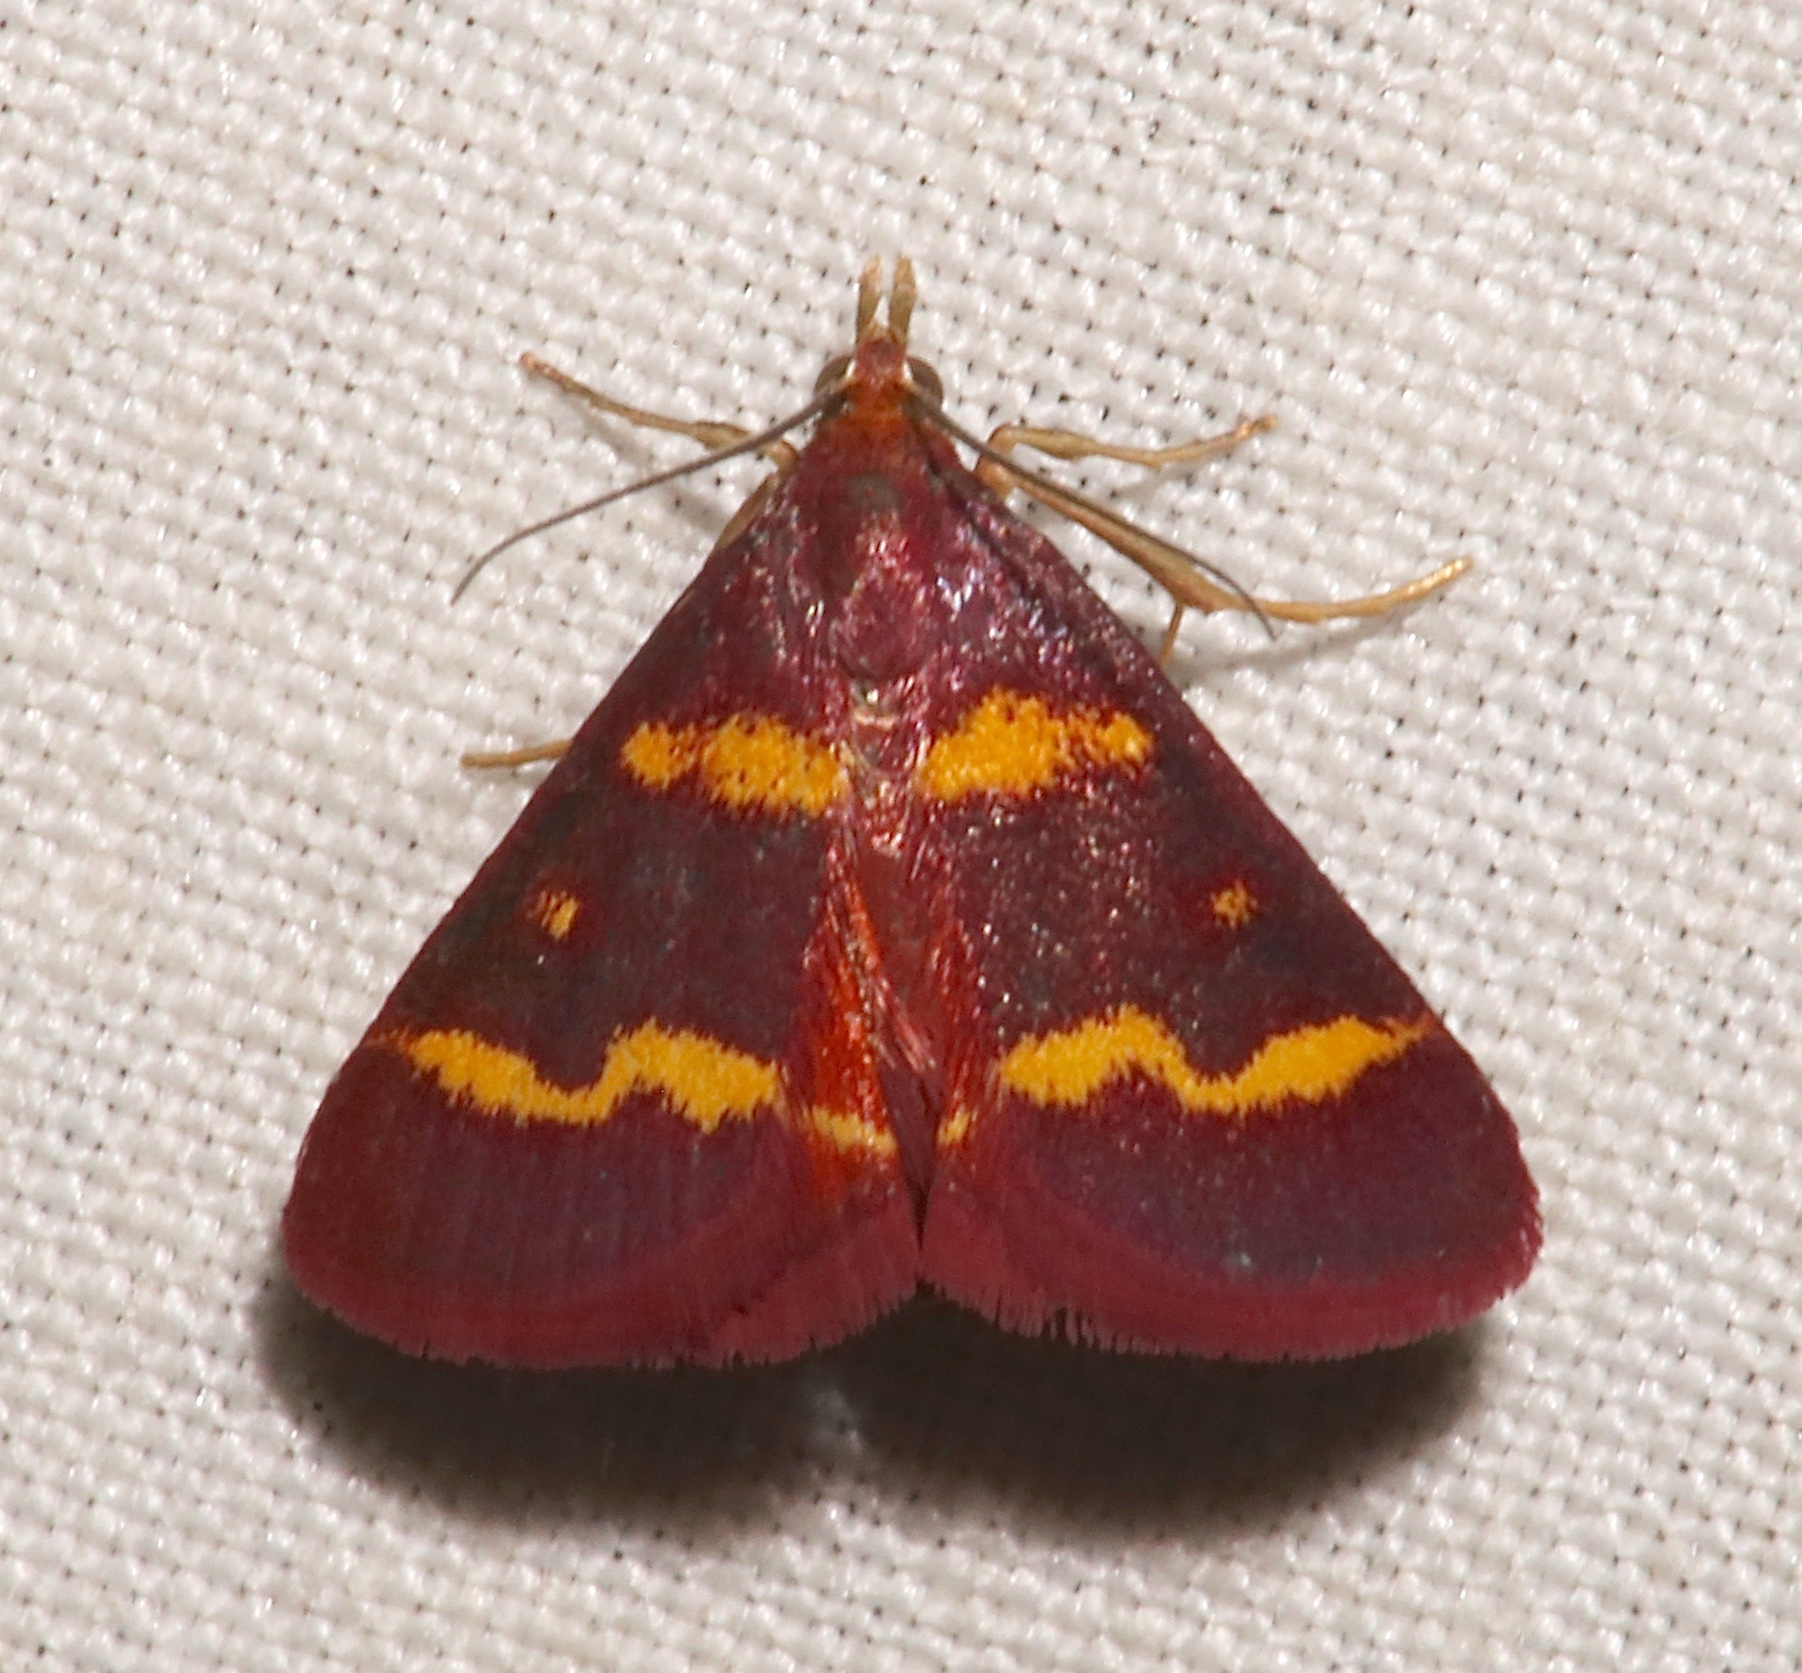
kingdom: Animalia
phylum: Arthropoda
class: Insecta
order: Lepidoptera
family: Crambidae
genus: Pyrausta
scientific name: Pyrausta tyralis
